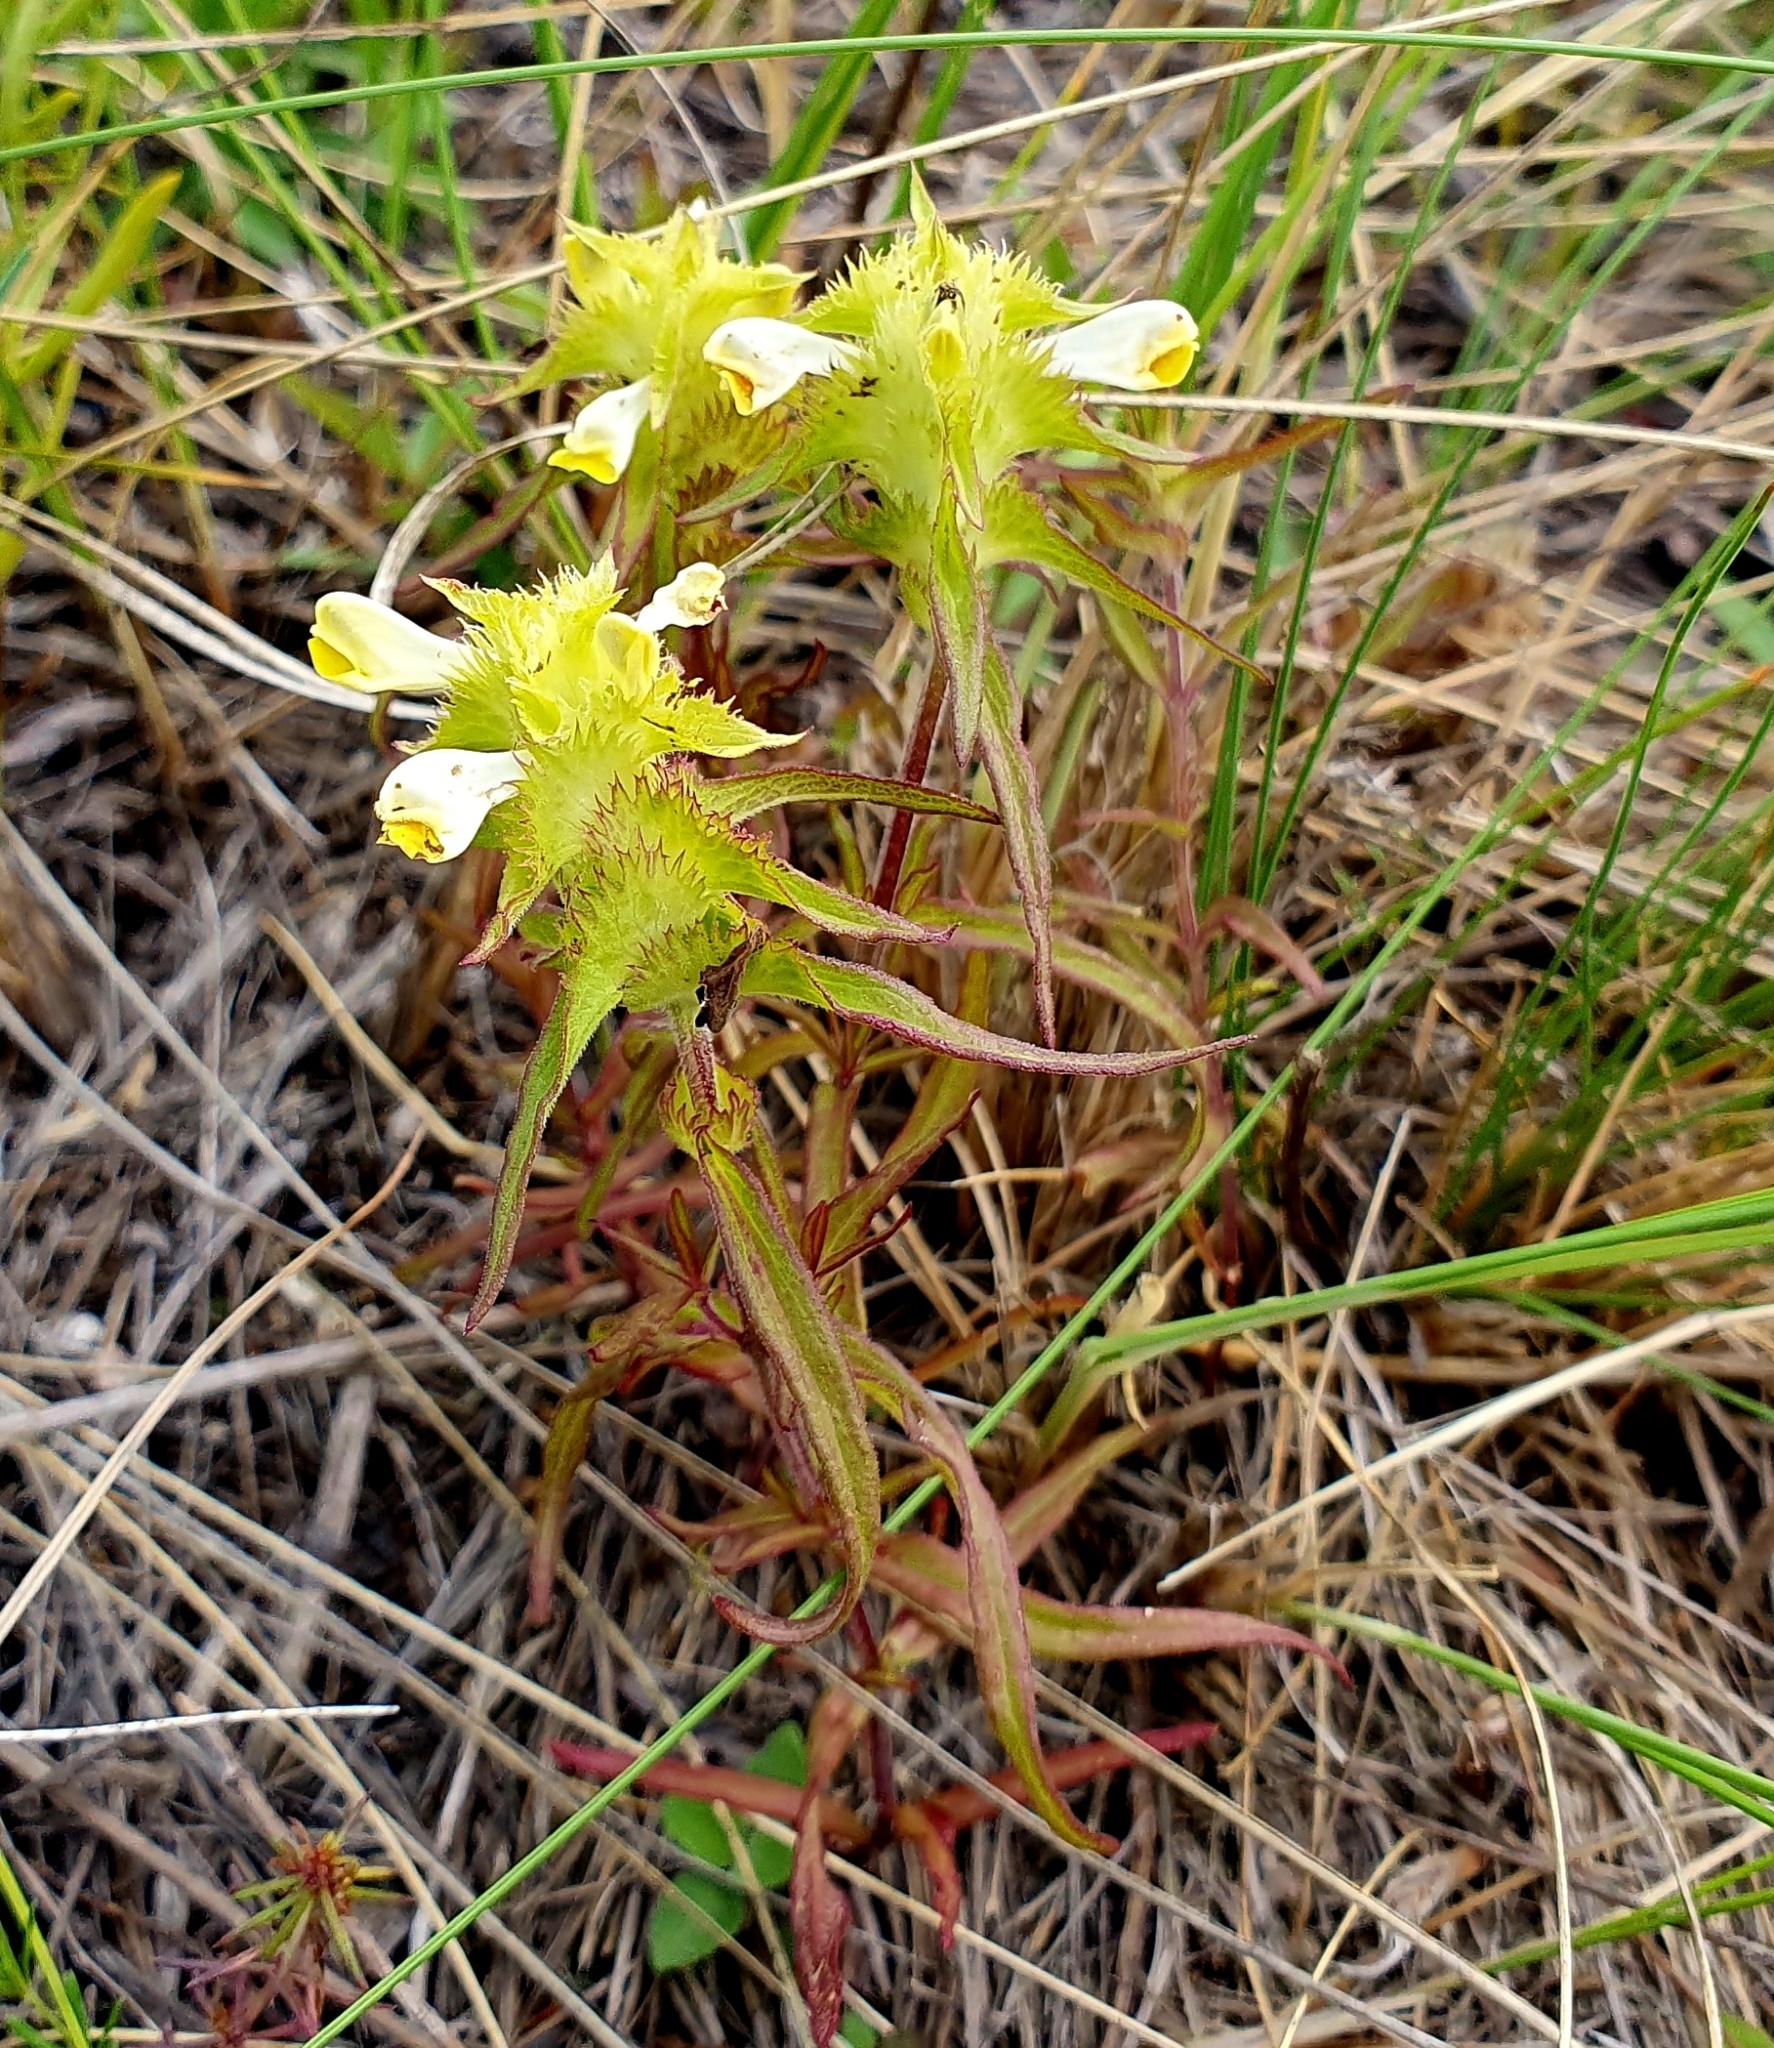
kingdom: Plantae
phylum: Tracheophyta
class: Magnoliopsida
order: Lamiales
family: Orobanchaceae
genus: Melampyrum
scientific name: Melampyrum cristatum
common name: Crested cow-wheat
